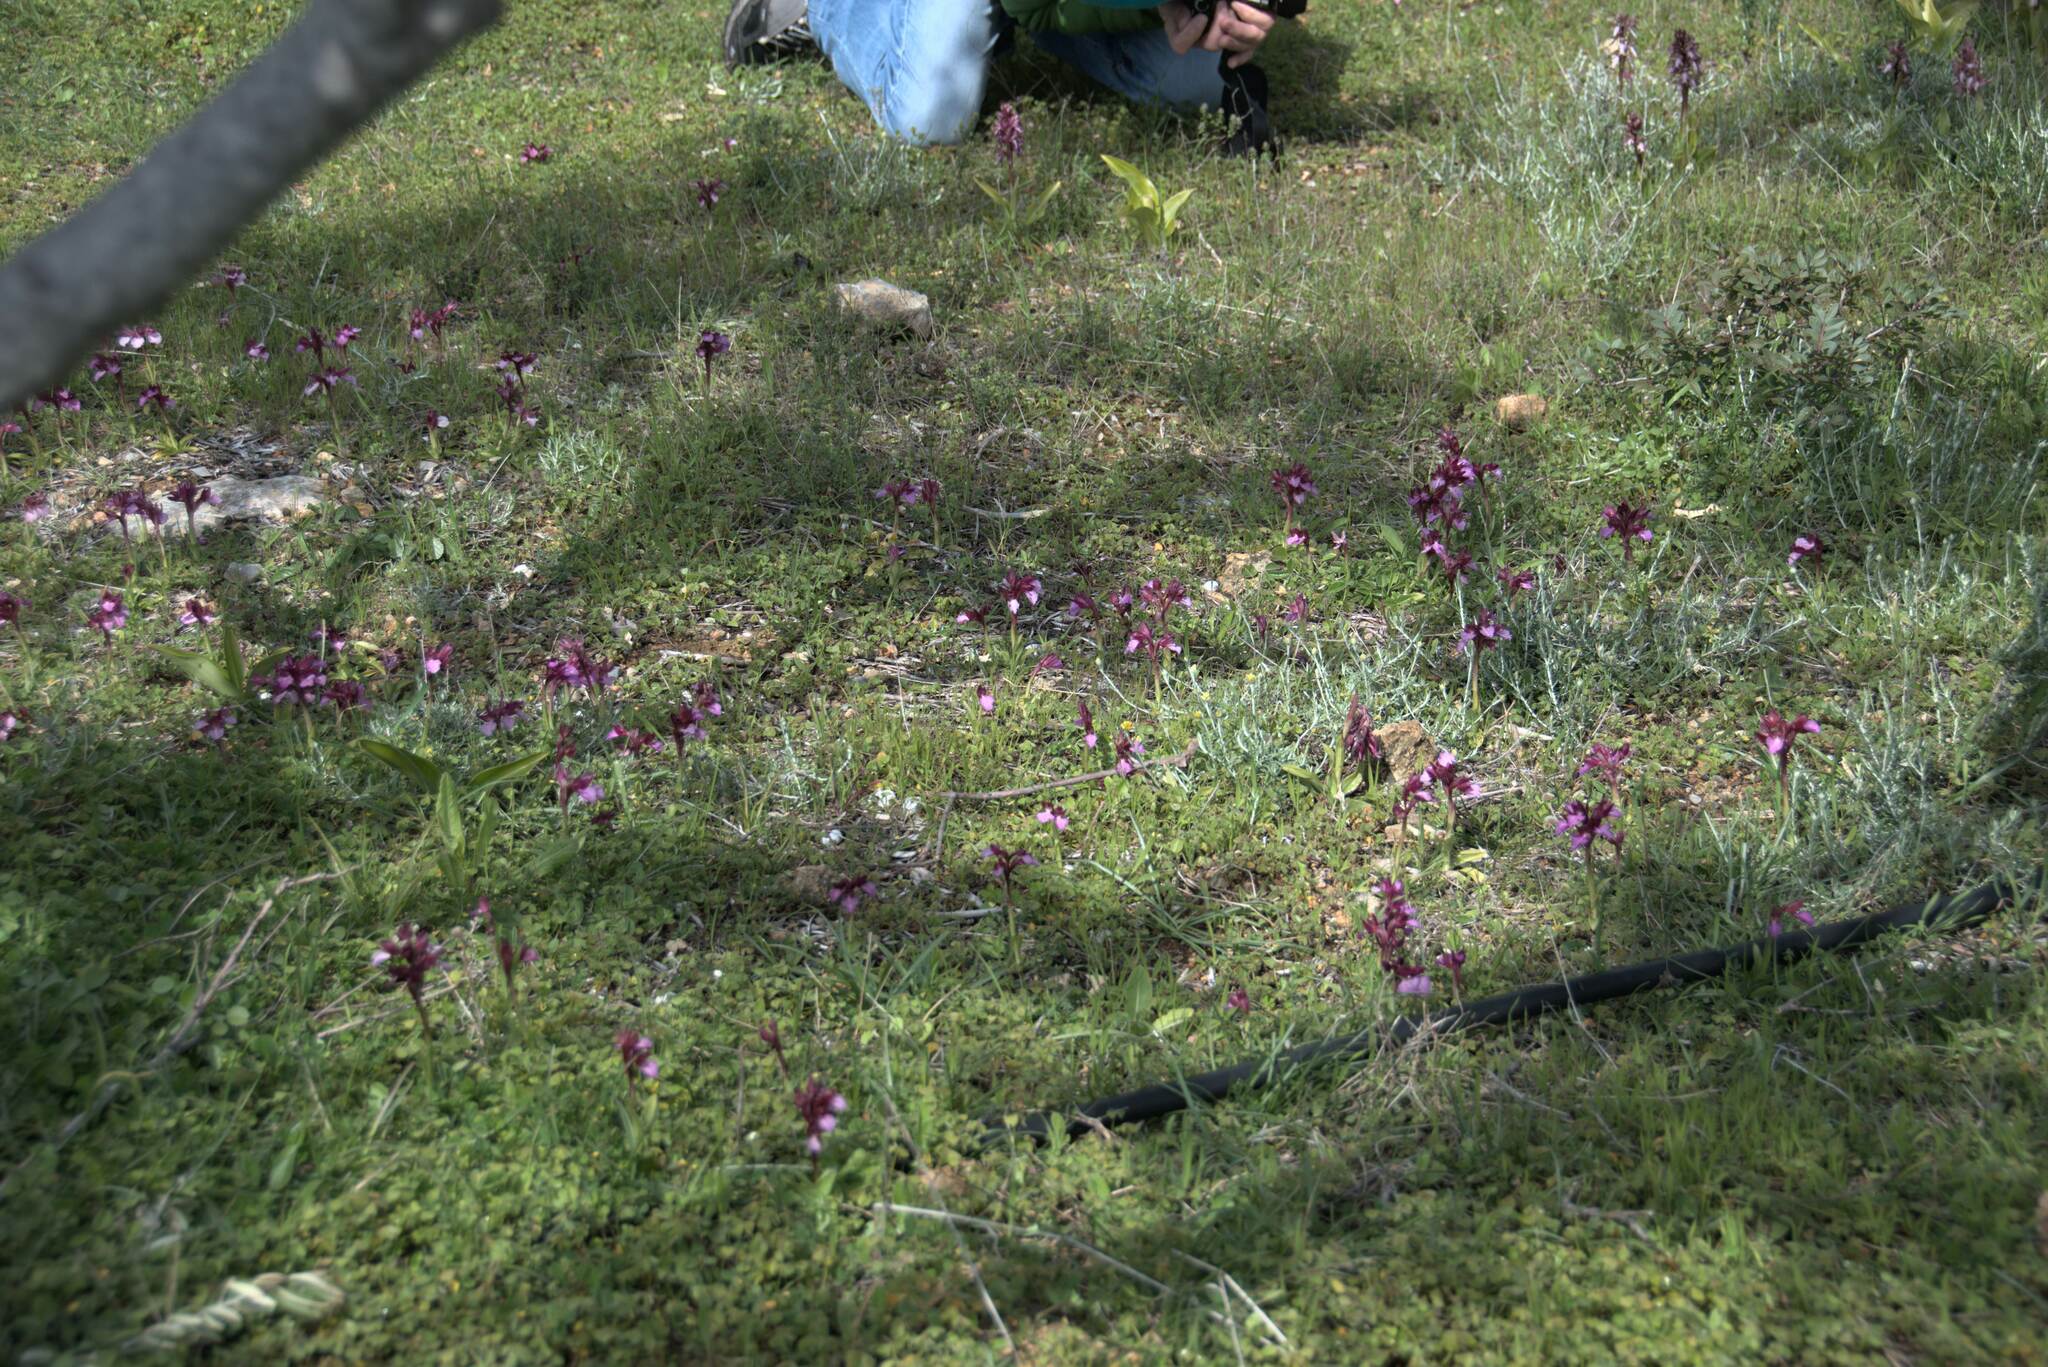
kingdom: Plantae
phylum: Tracheophyta
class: Liliopsida
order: Asparagales
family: Orchidaceae
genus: Anacamptis
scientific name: Anacamptis papilionacea
